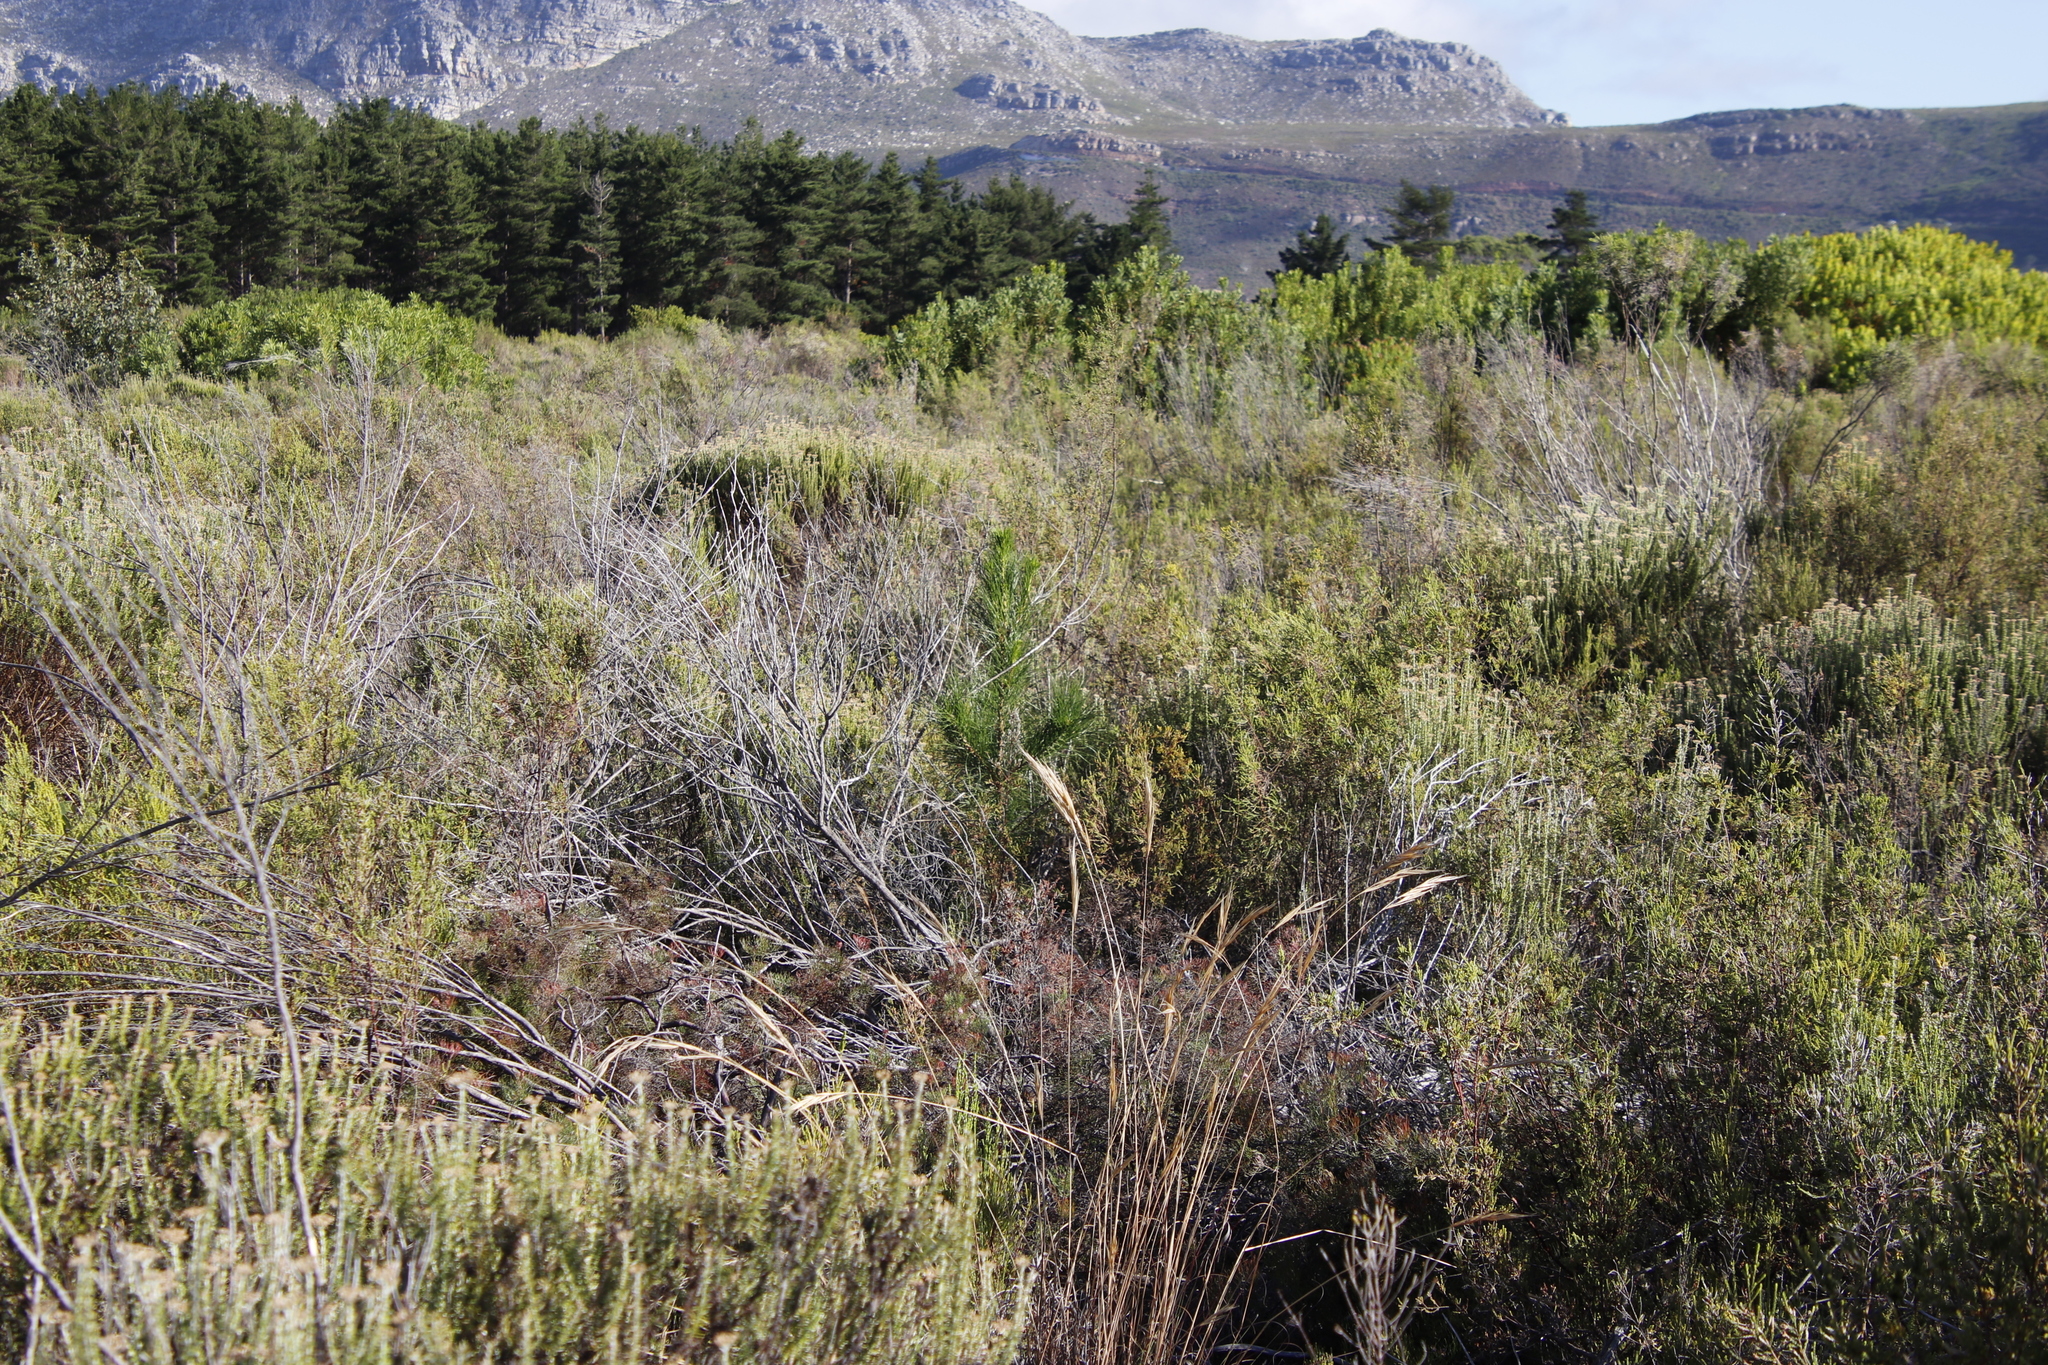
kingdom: Plantae
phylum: Tracheophyta
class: Pinopsida
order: Pinales
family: Pinaceae
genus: Pinus
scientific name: Pinus radiata
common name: Monterey pine
